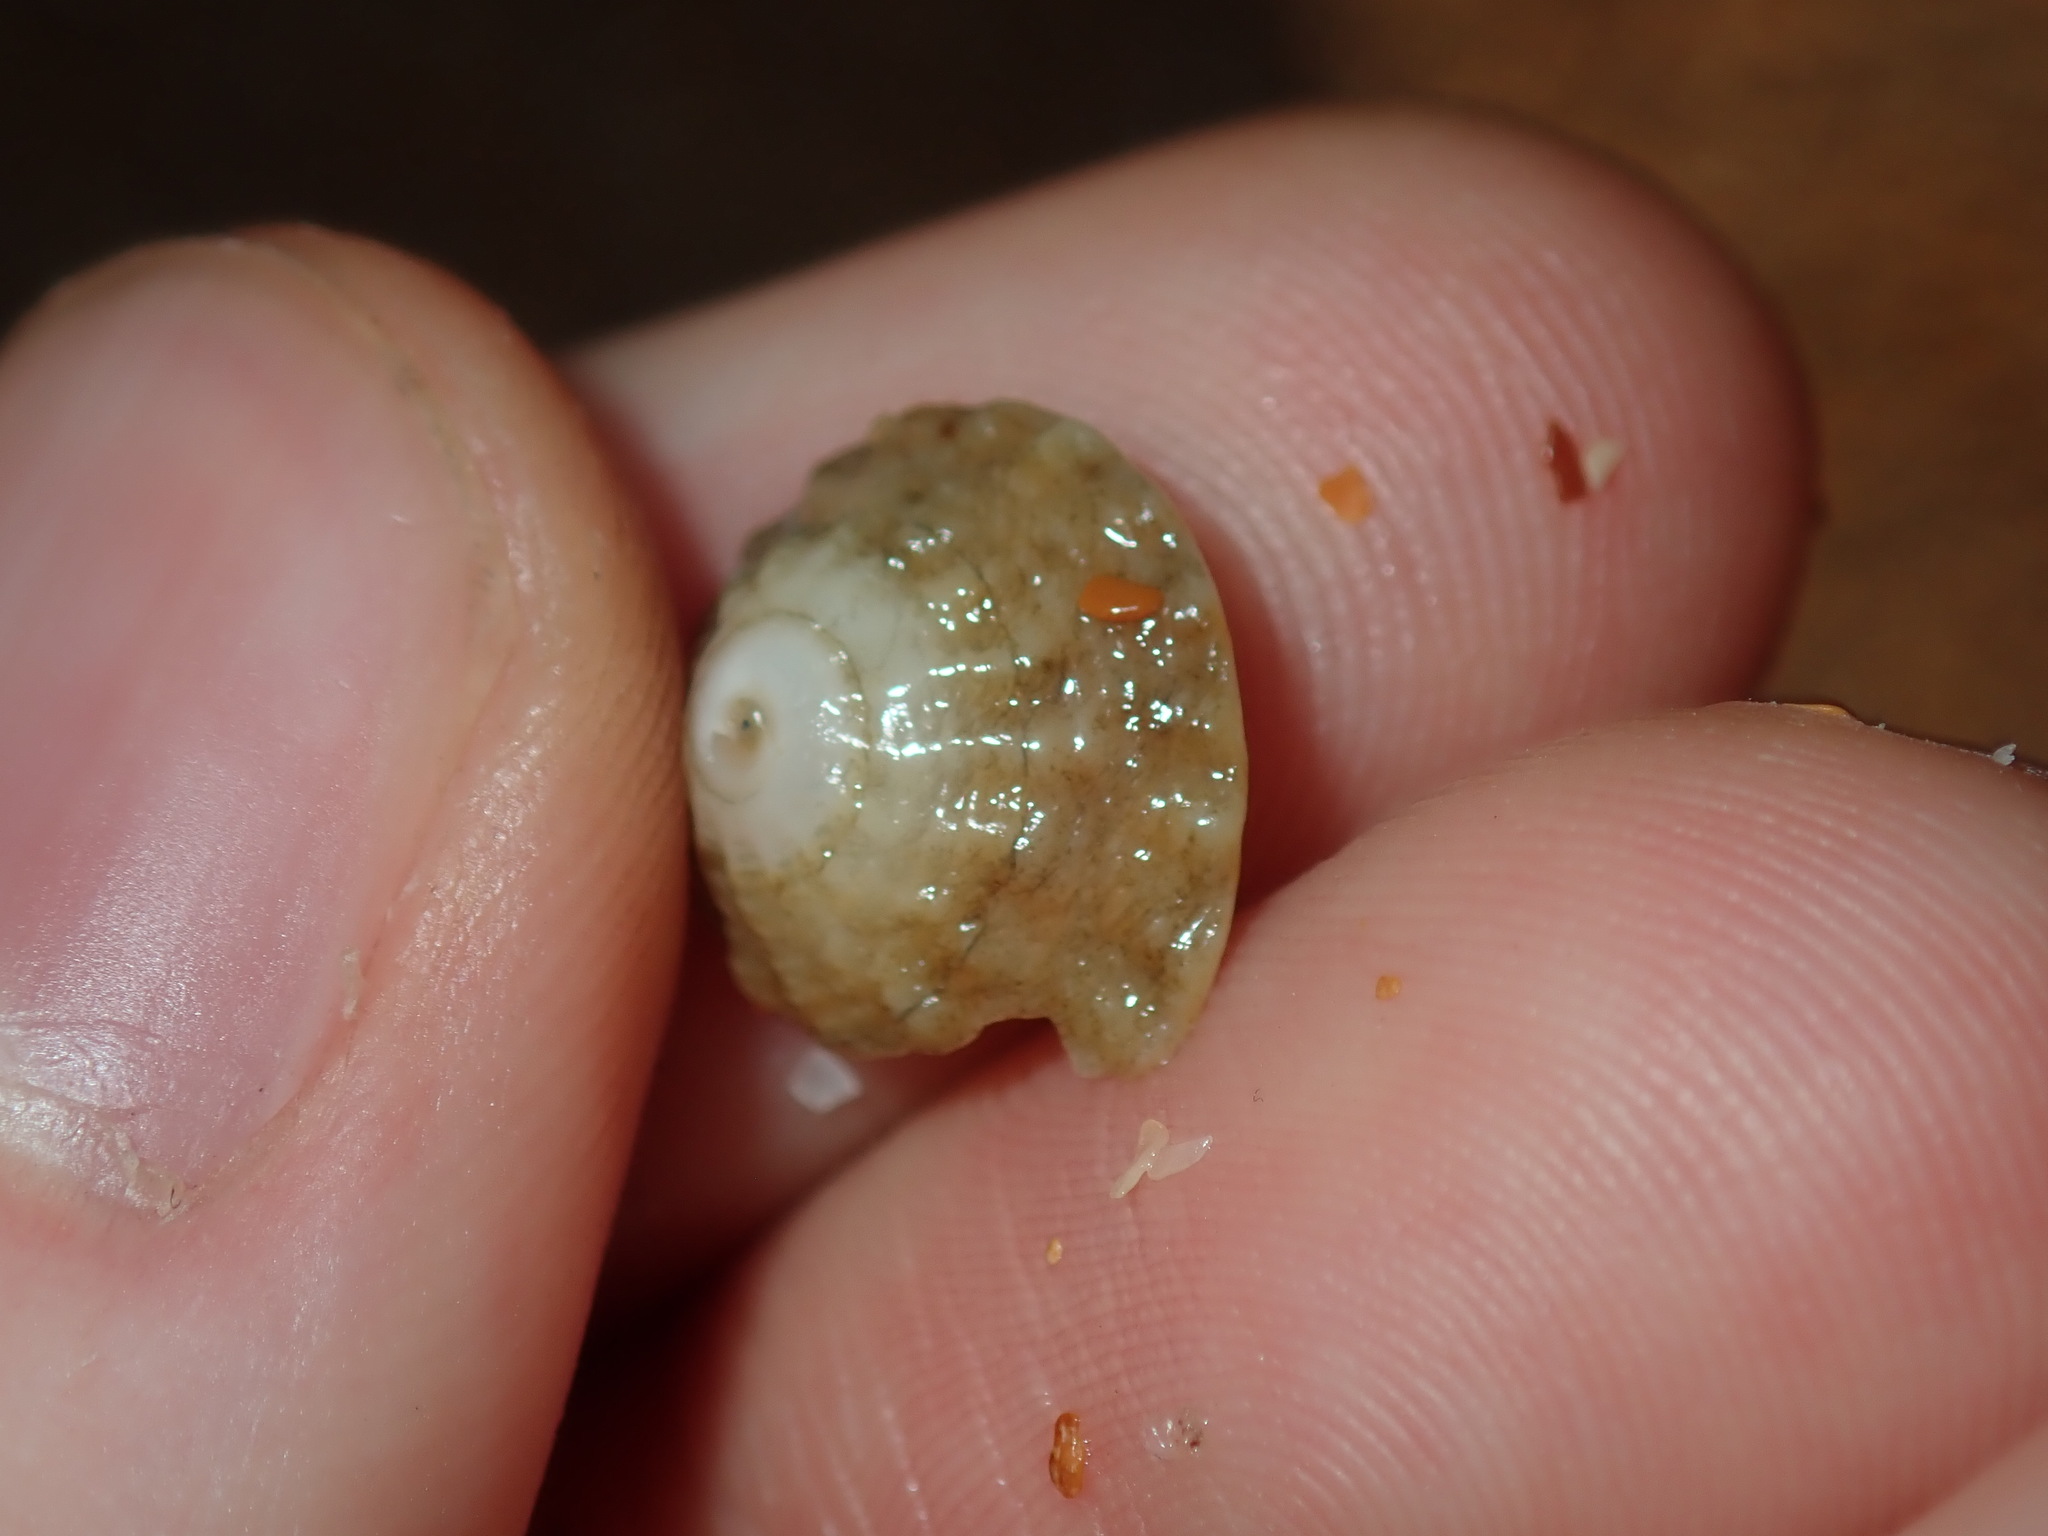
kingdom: Animalia
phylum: Mollusca
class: Gastropoda
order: Trochida
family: Turbinidae
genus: Bellastraea
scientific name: Bellastraea squamifera
